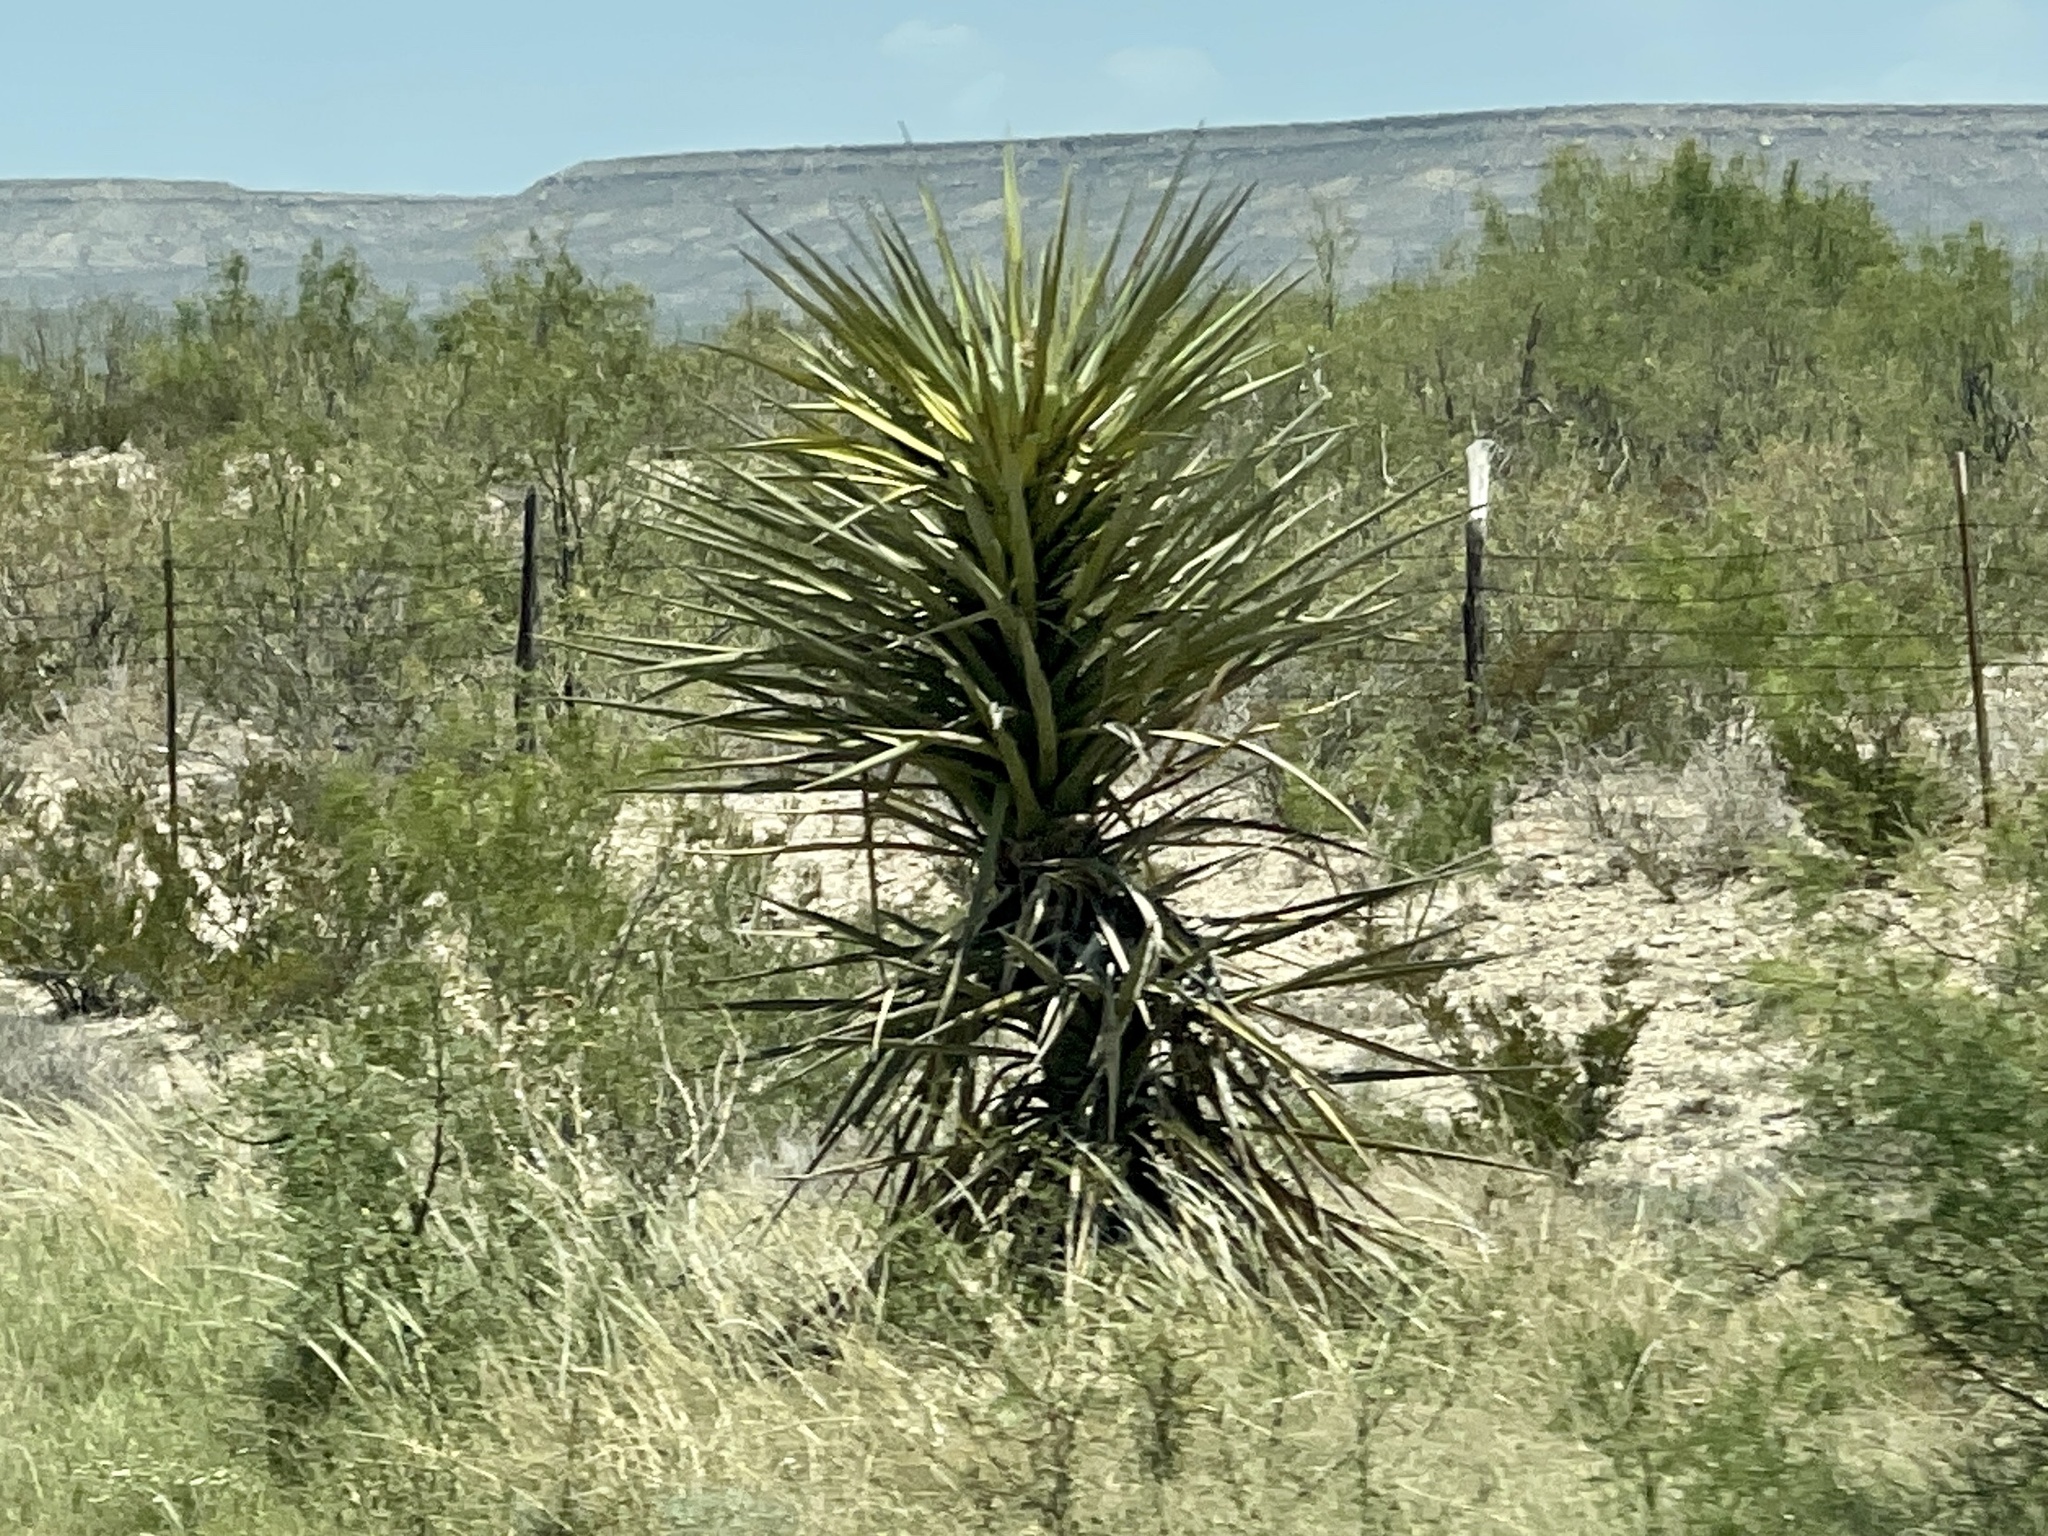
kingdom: Plantae
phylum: Tracheophyta
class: Liliopsida
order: Asparagales
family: Asparagaceae
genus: Yucca
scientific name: Yucca treculiana
